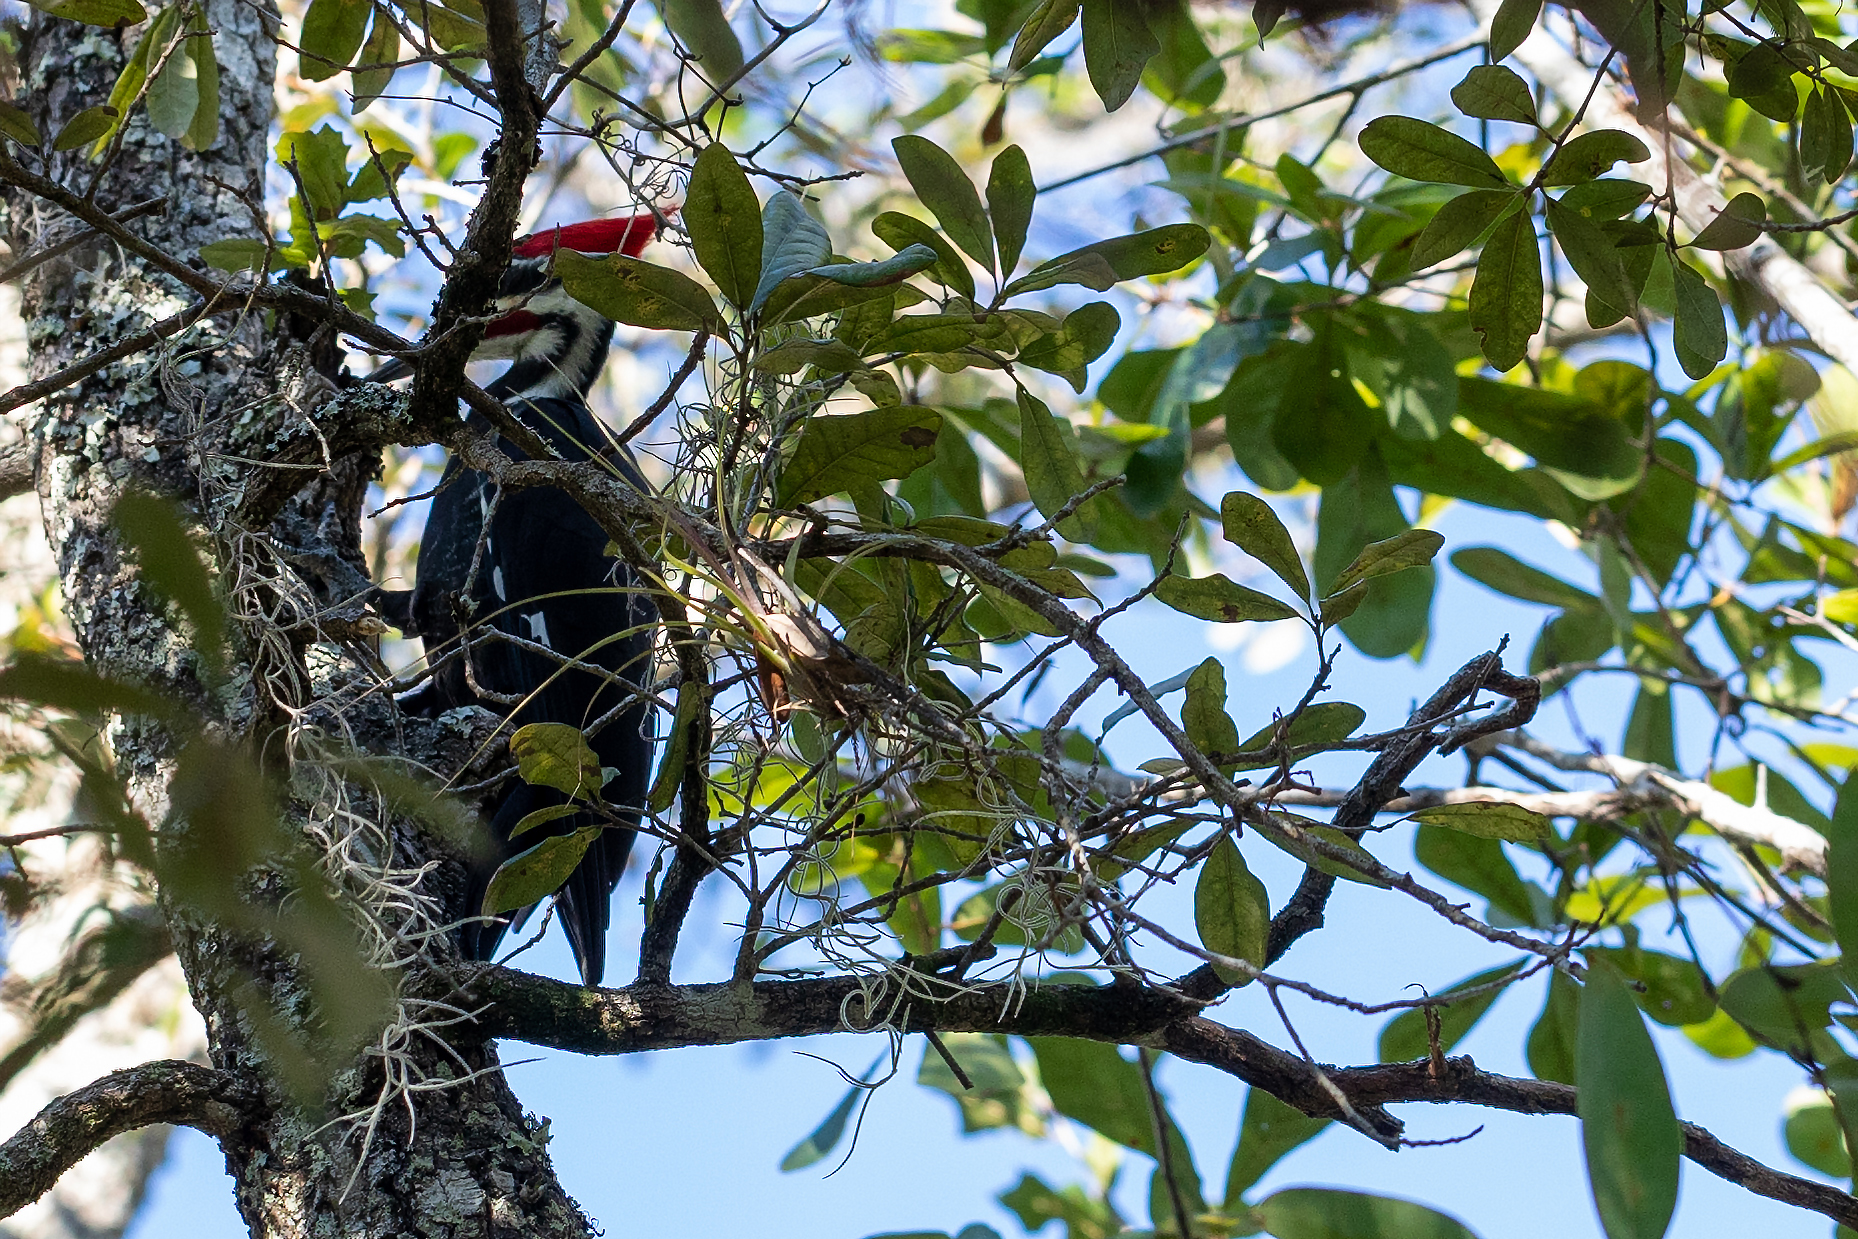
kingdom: Animalia
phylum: Chordata
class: Aves
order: Piciformes
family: Picidae
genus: Dryocopus
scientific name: Dryocopus pileatus
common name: Pileated woodpecker
